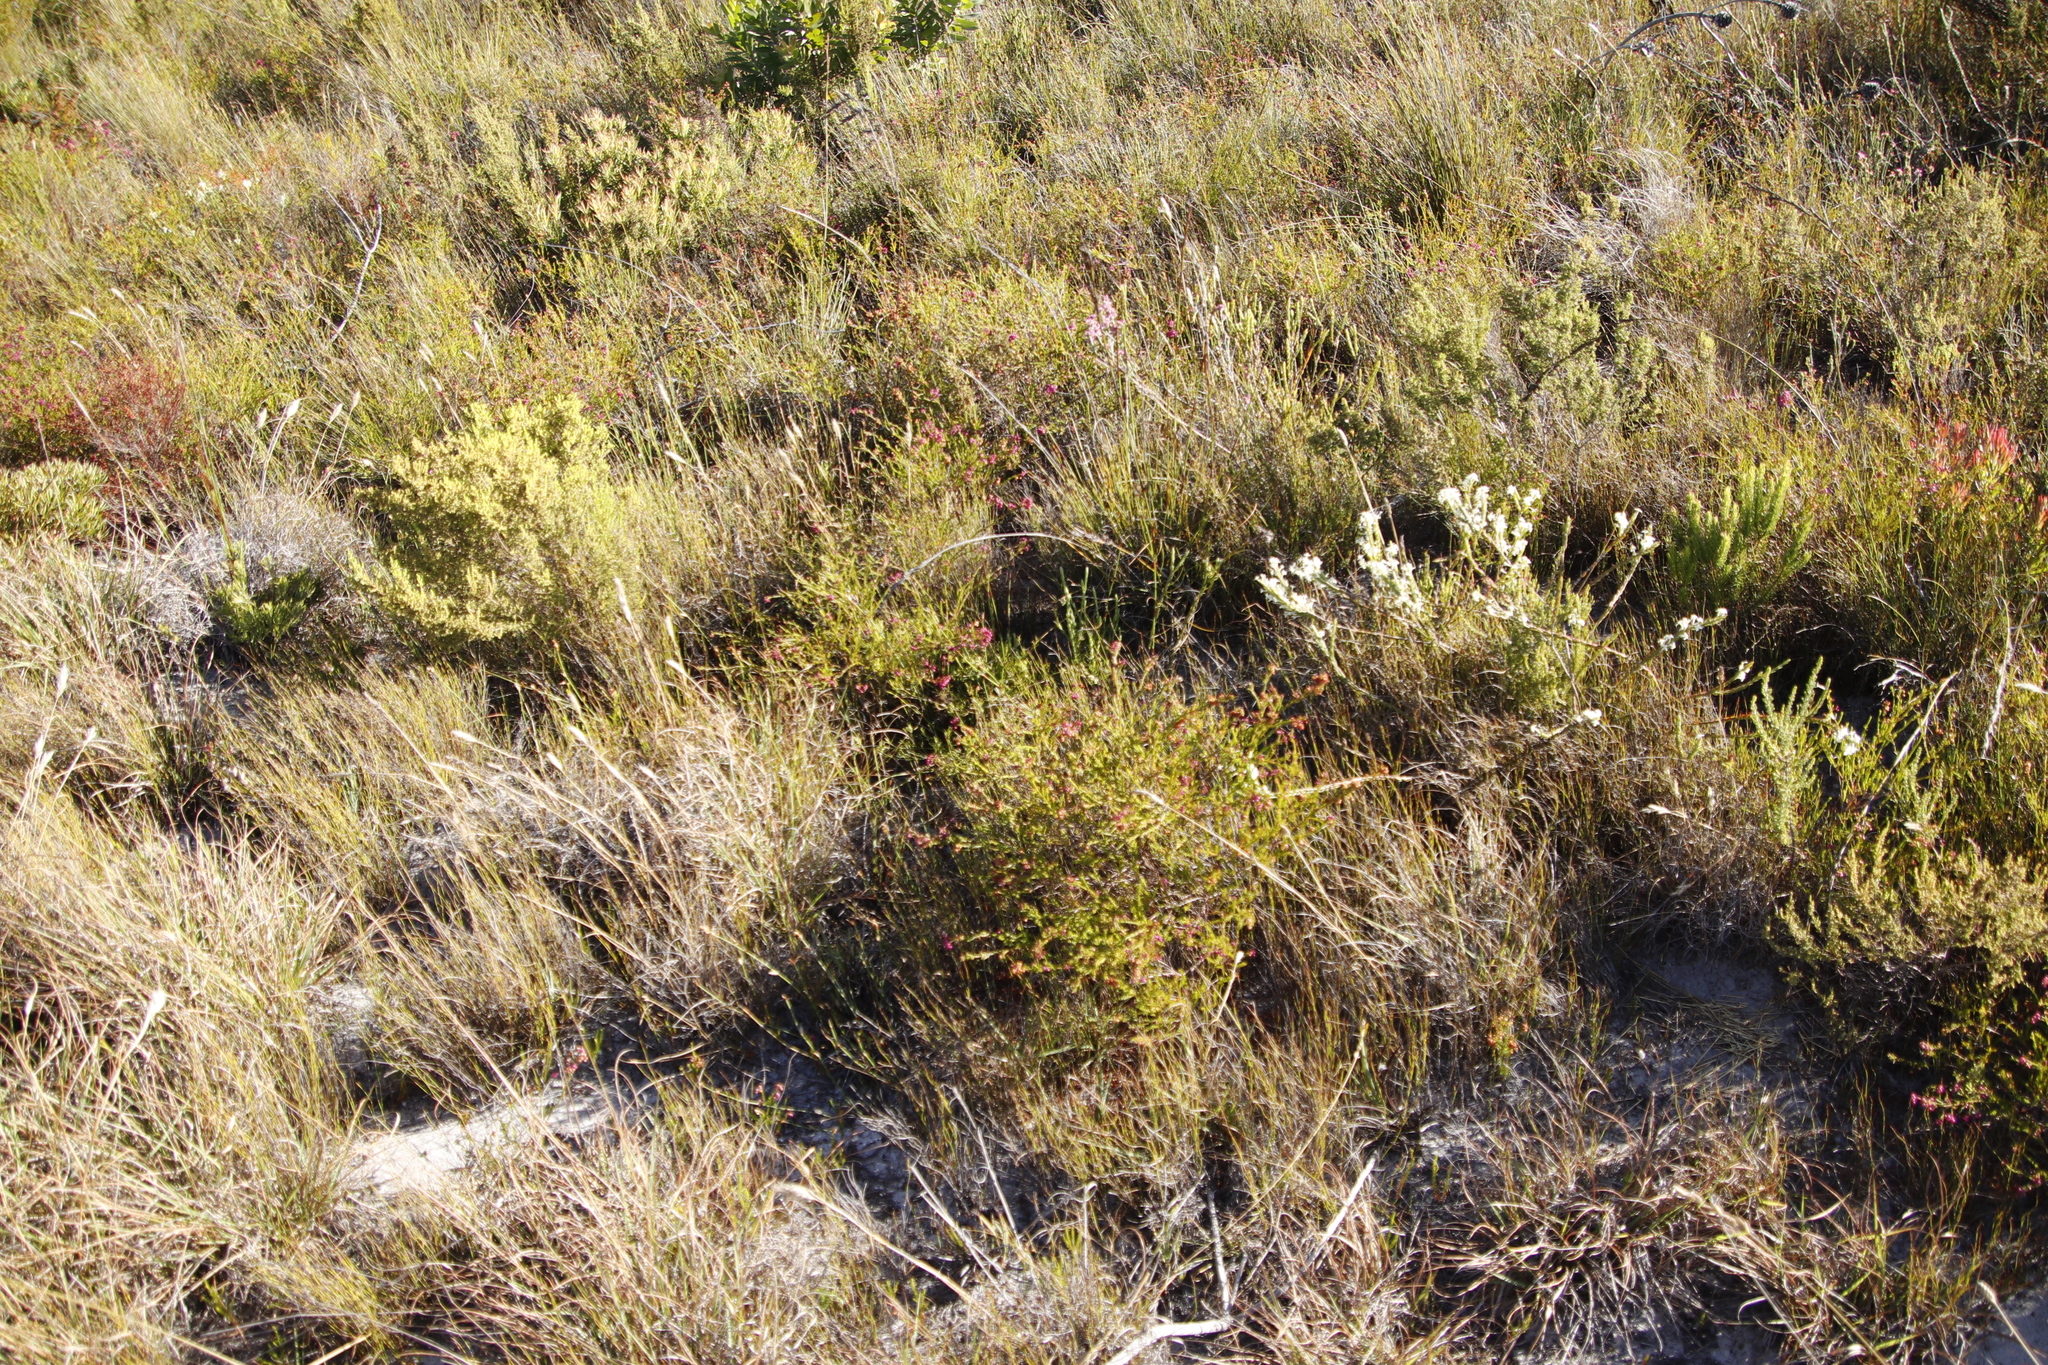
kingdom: Plantae
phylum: Tracheophyta
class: Magnoliopsida
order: Ericales
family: Ericaceae
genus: Erica
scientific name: Erica multumbellifera
